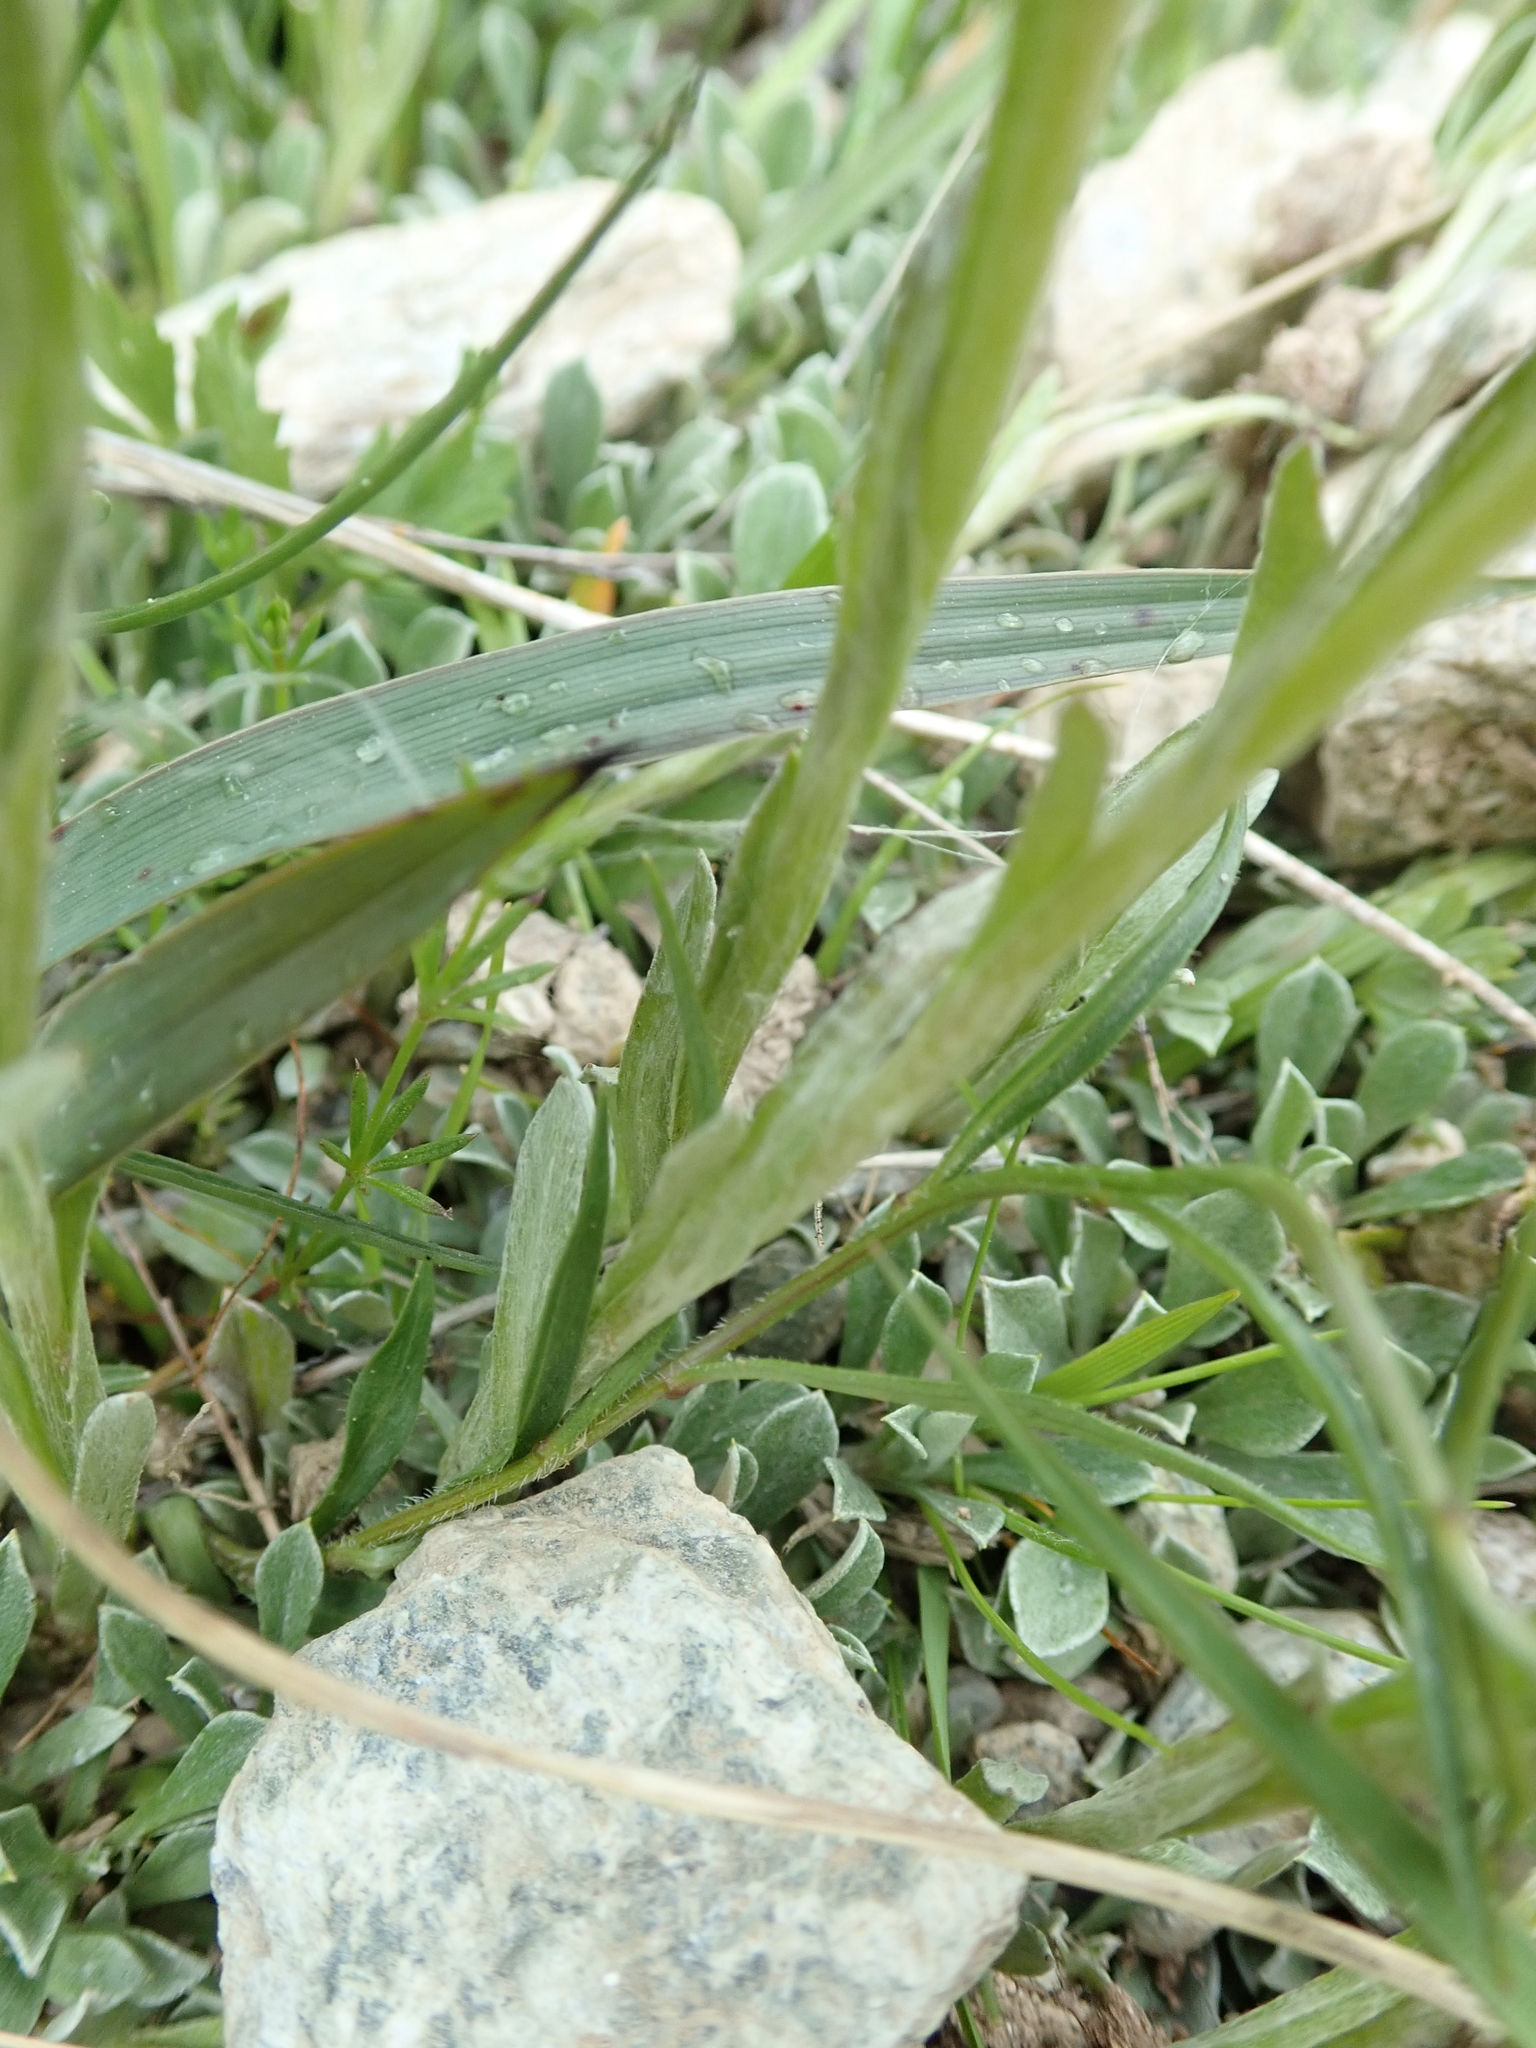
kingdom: Plantae
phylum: Tracheophyta
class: Magnoliopsida
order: Asterales
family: Asteraceae
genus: Antennaria
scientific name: Antennaria dioica
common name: Mountain everlasting
